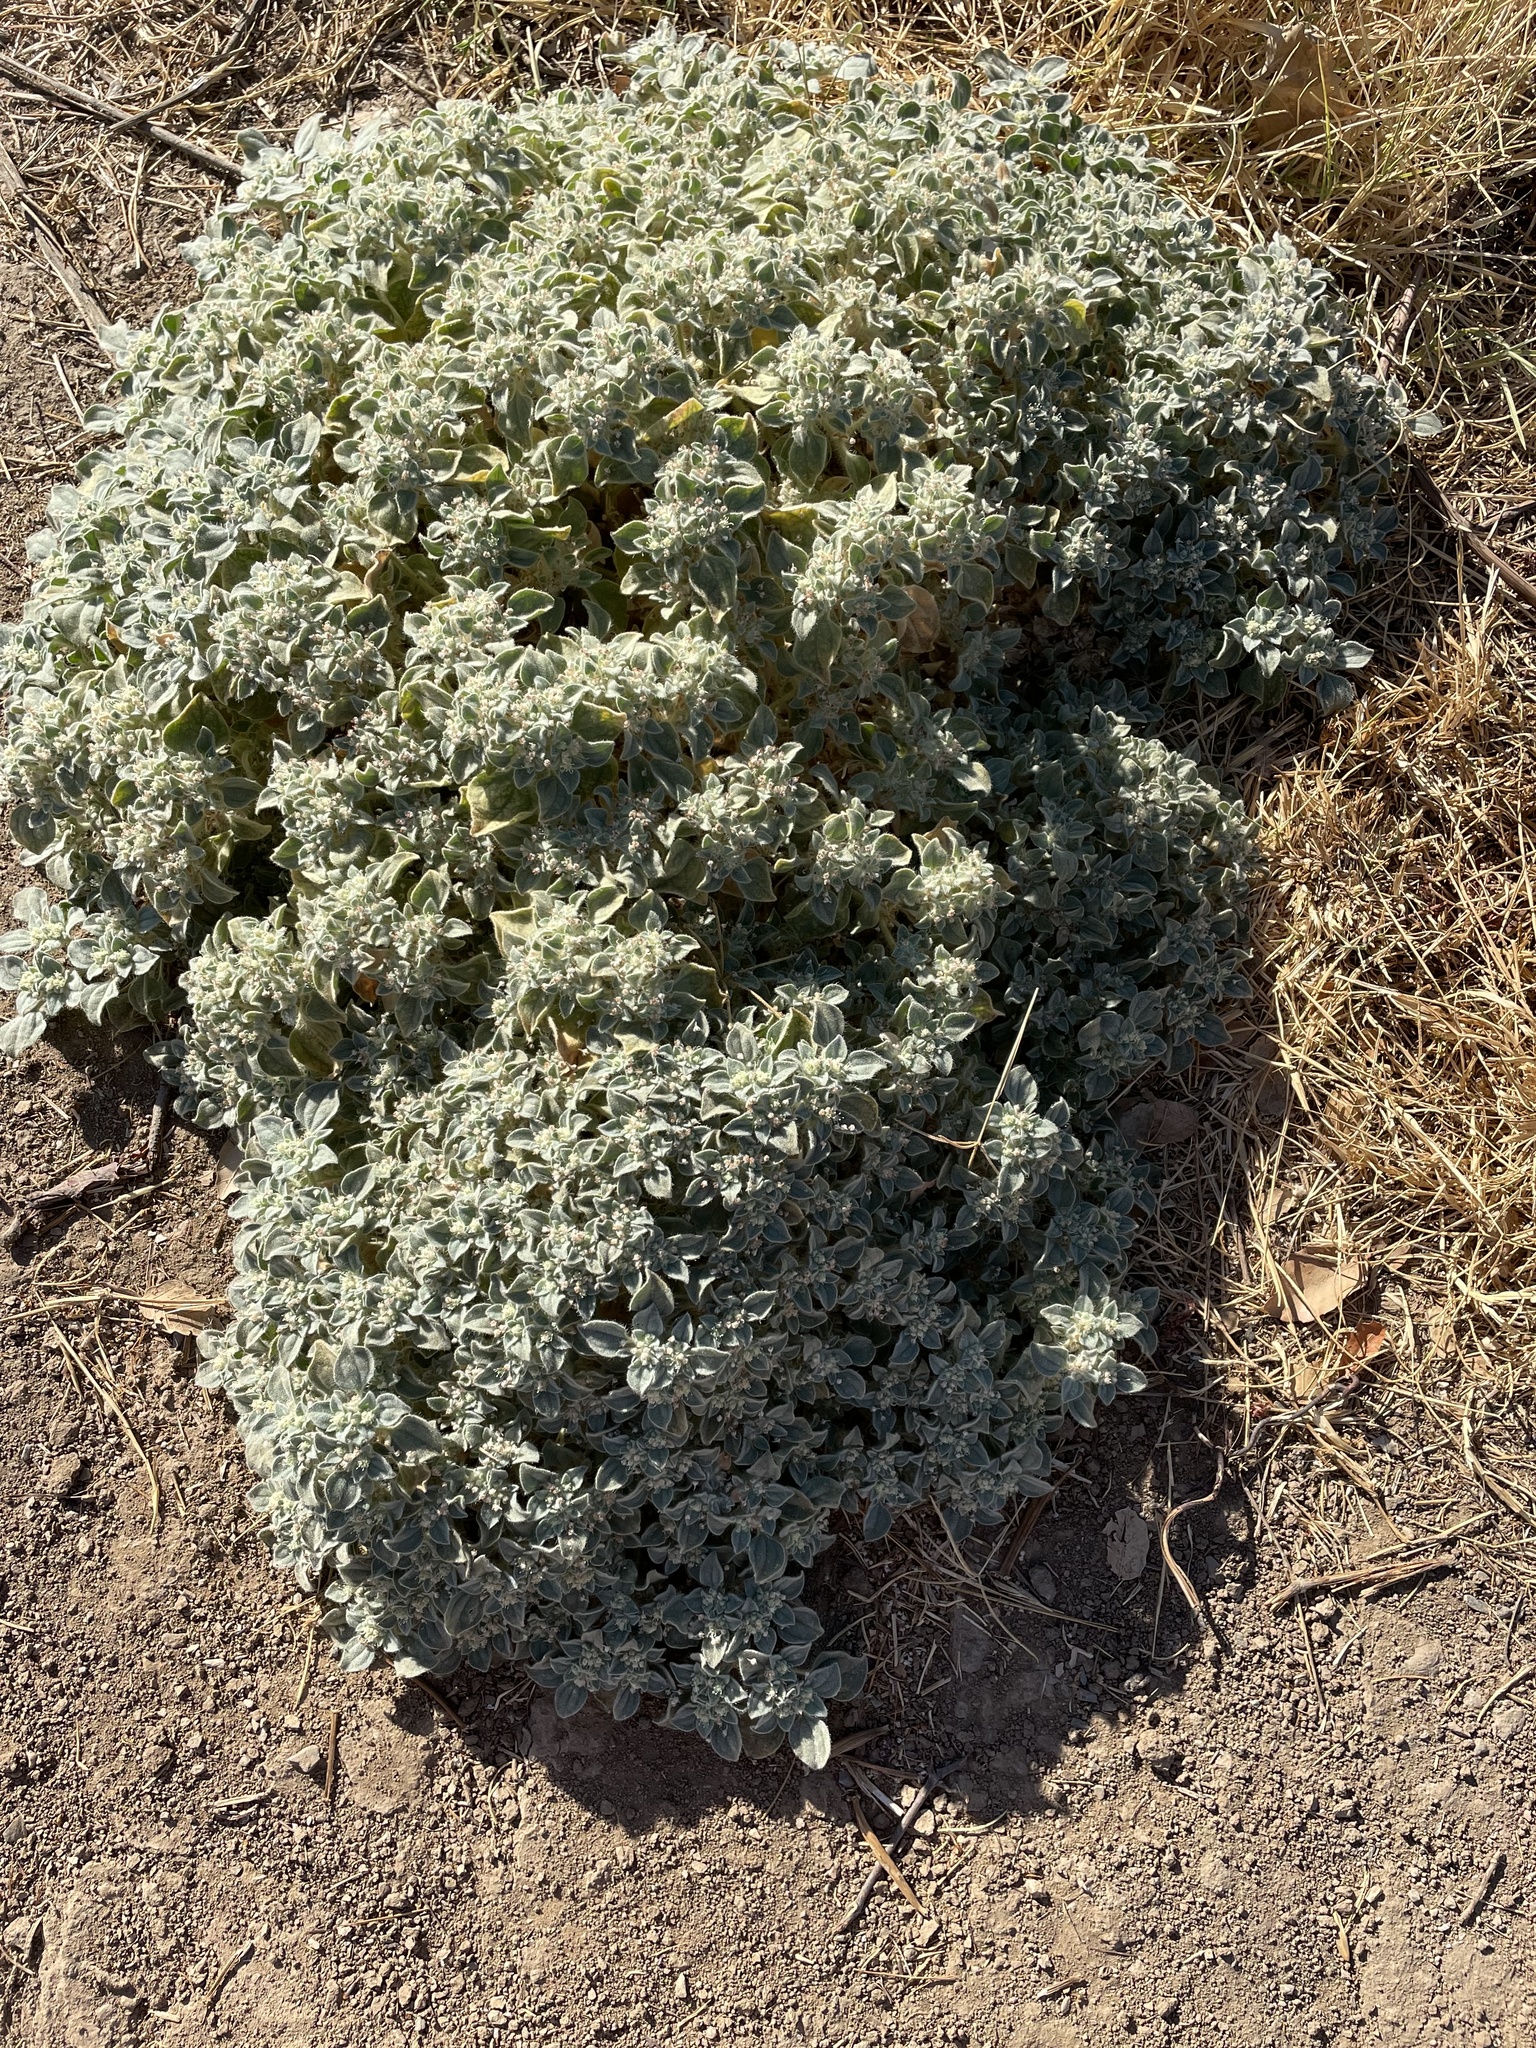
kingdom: Plantae
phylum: Tracheophyta
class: Magnoliopsida
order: Malpighiales
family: Euphorbiaceae
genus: Croton
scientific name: Croton setiger
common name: Dove weed
